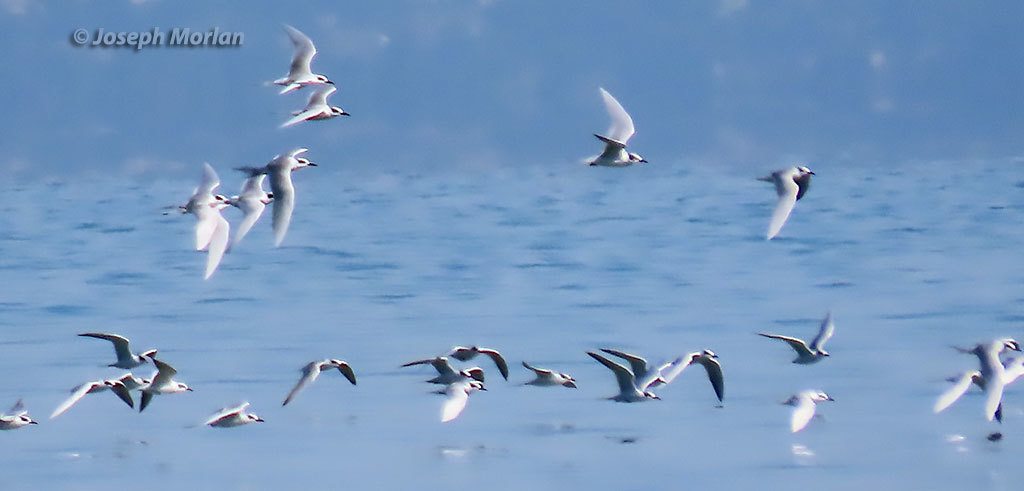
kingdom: Animalia
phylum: Chordata
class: Aves
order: Charadriiformes
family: Laridae
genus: Sterna
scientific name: Sterna forsteri
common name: Forster's tern
